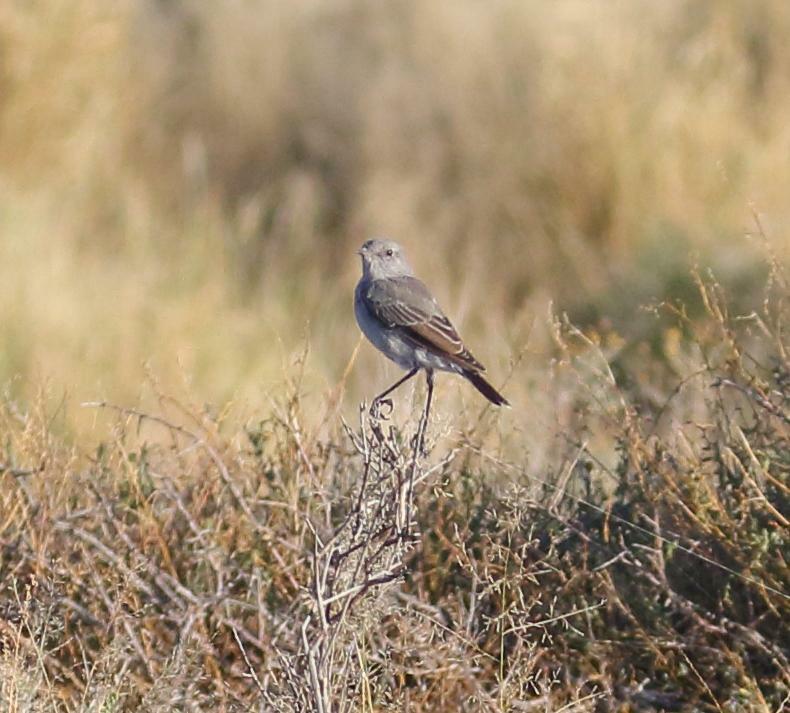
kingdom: Animalia
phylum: Chordata
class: Aves
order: Passeriformes
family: Muscicapidae
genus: Emarginata
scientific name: Emarginata schlegelii
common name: Karoo chat
